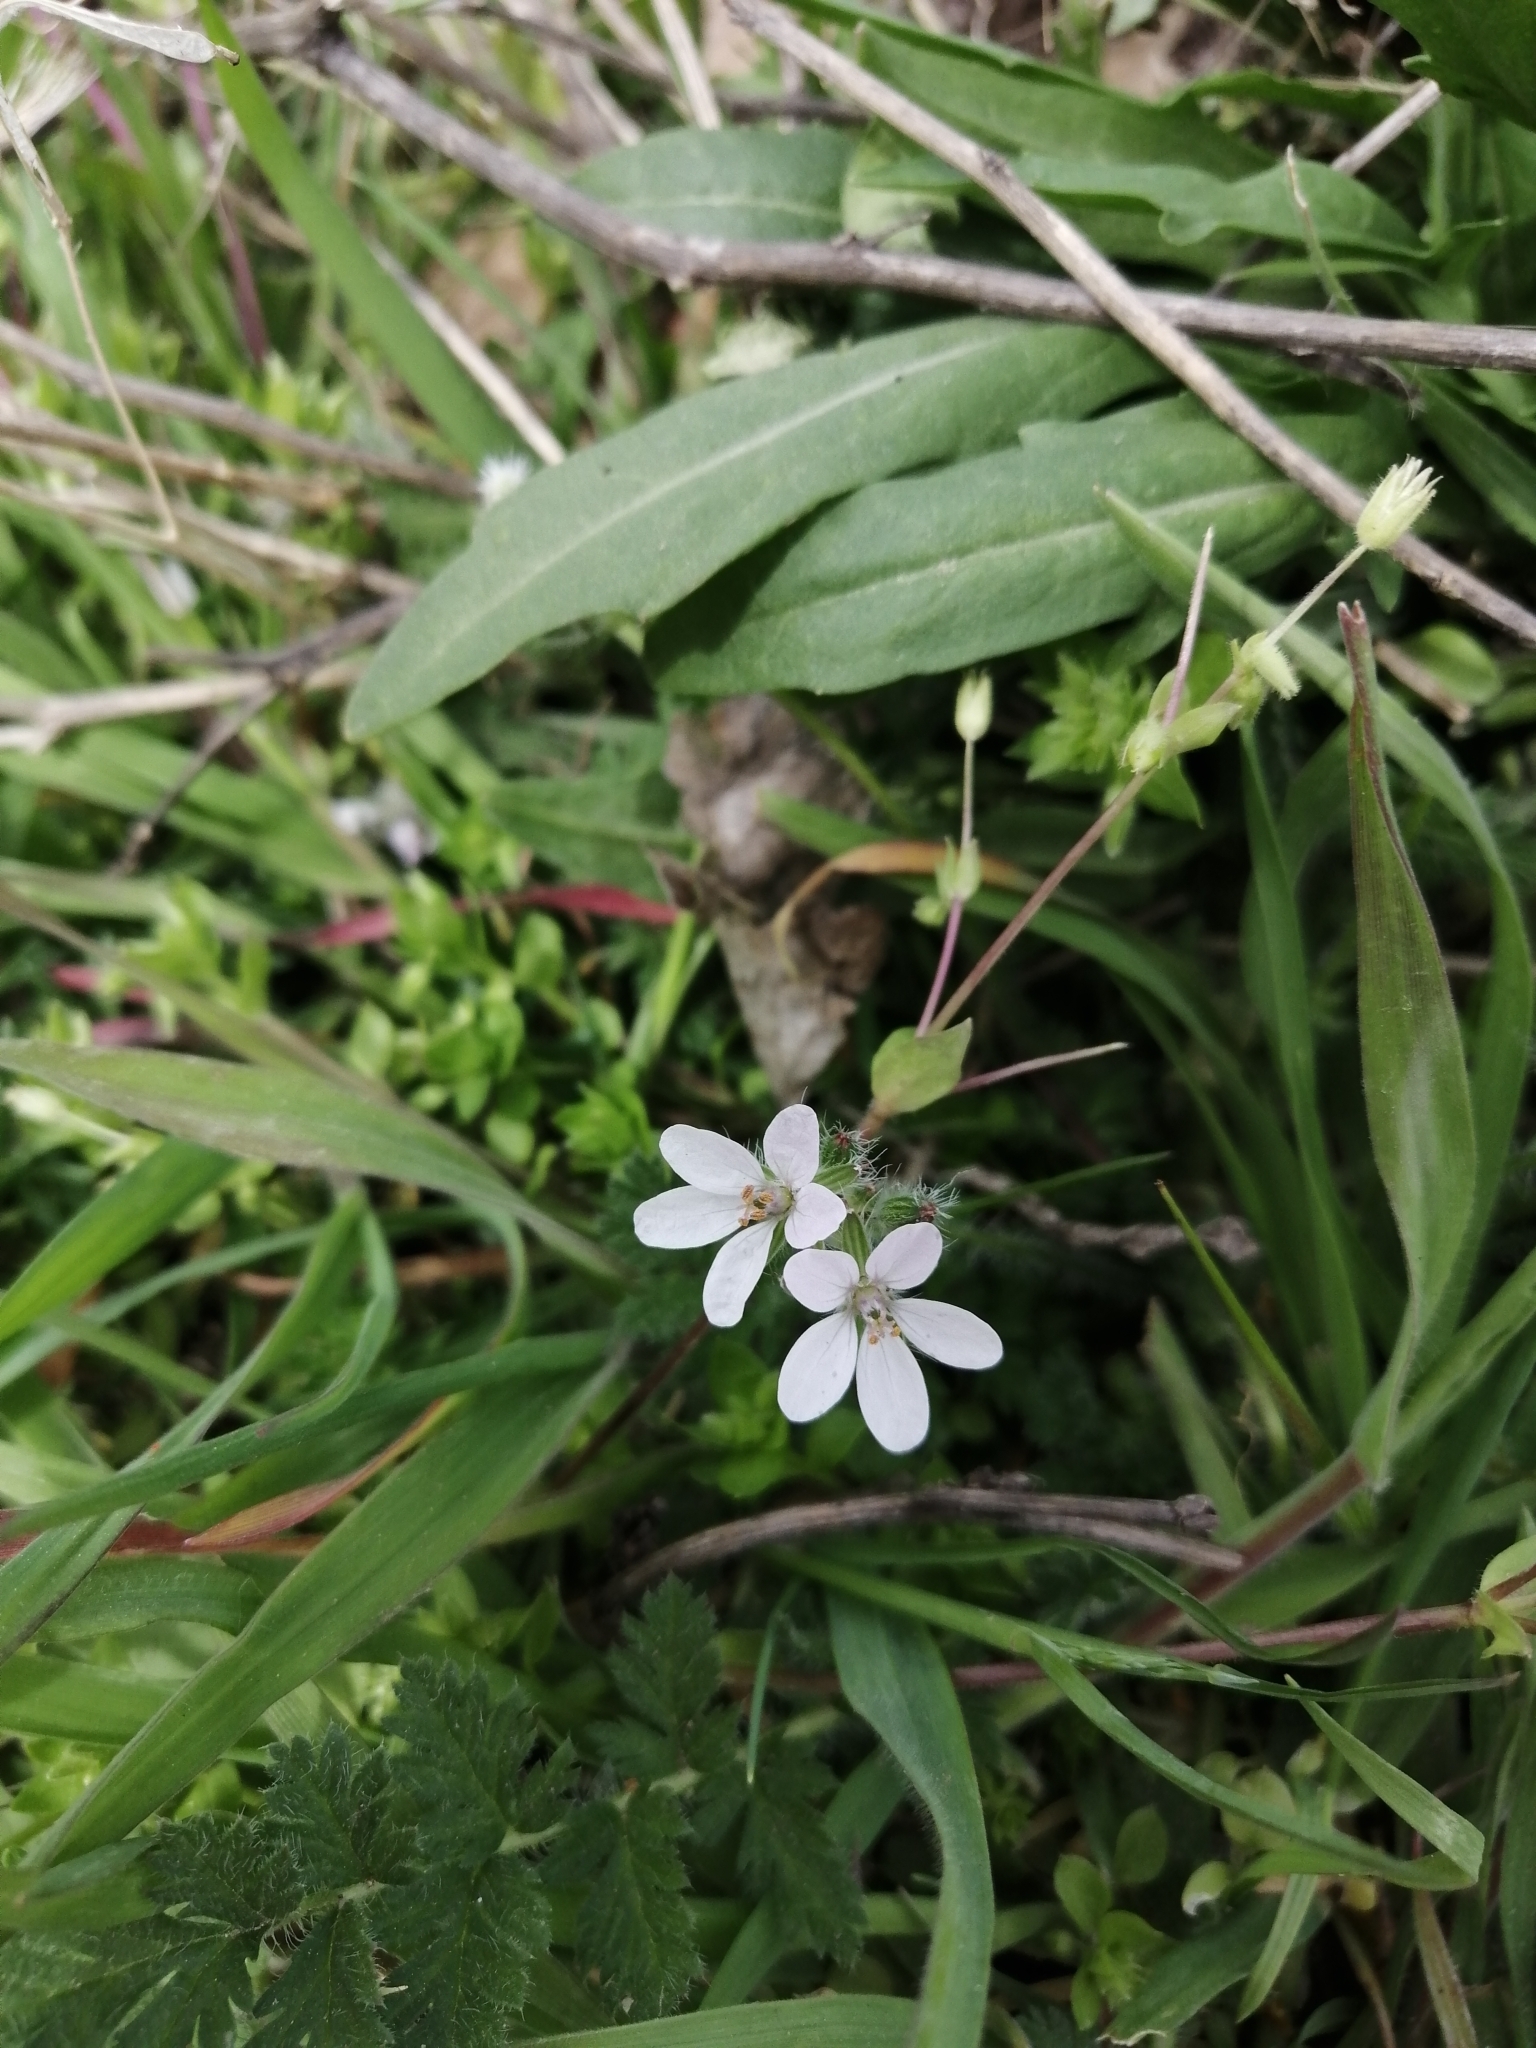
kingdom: Plantae
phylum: Tracheophyta
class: Magnoliopsida
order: Geraniales
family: Geraniaceae
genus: Erodium
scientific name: Erodium cicutarium
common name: Common stork's-bill
